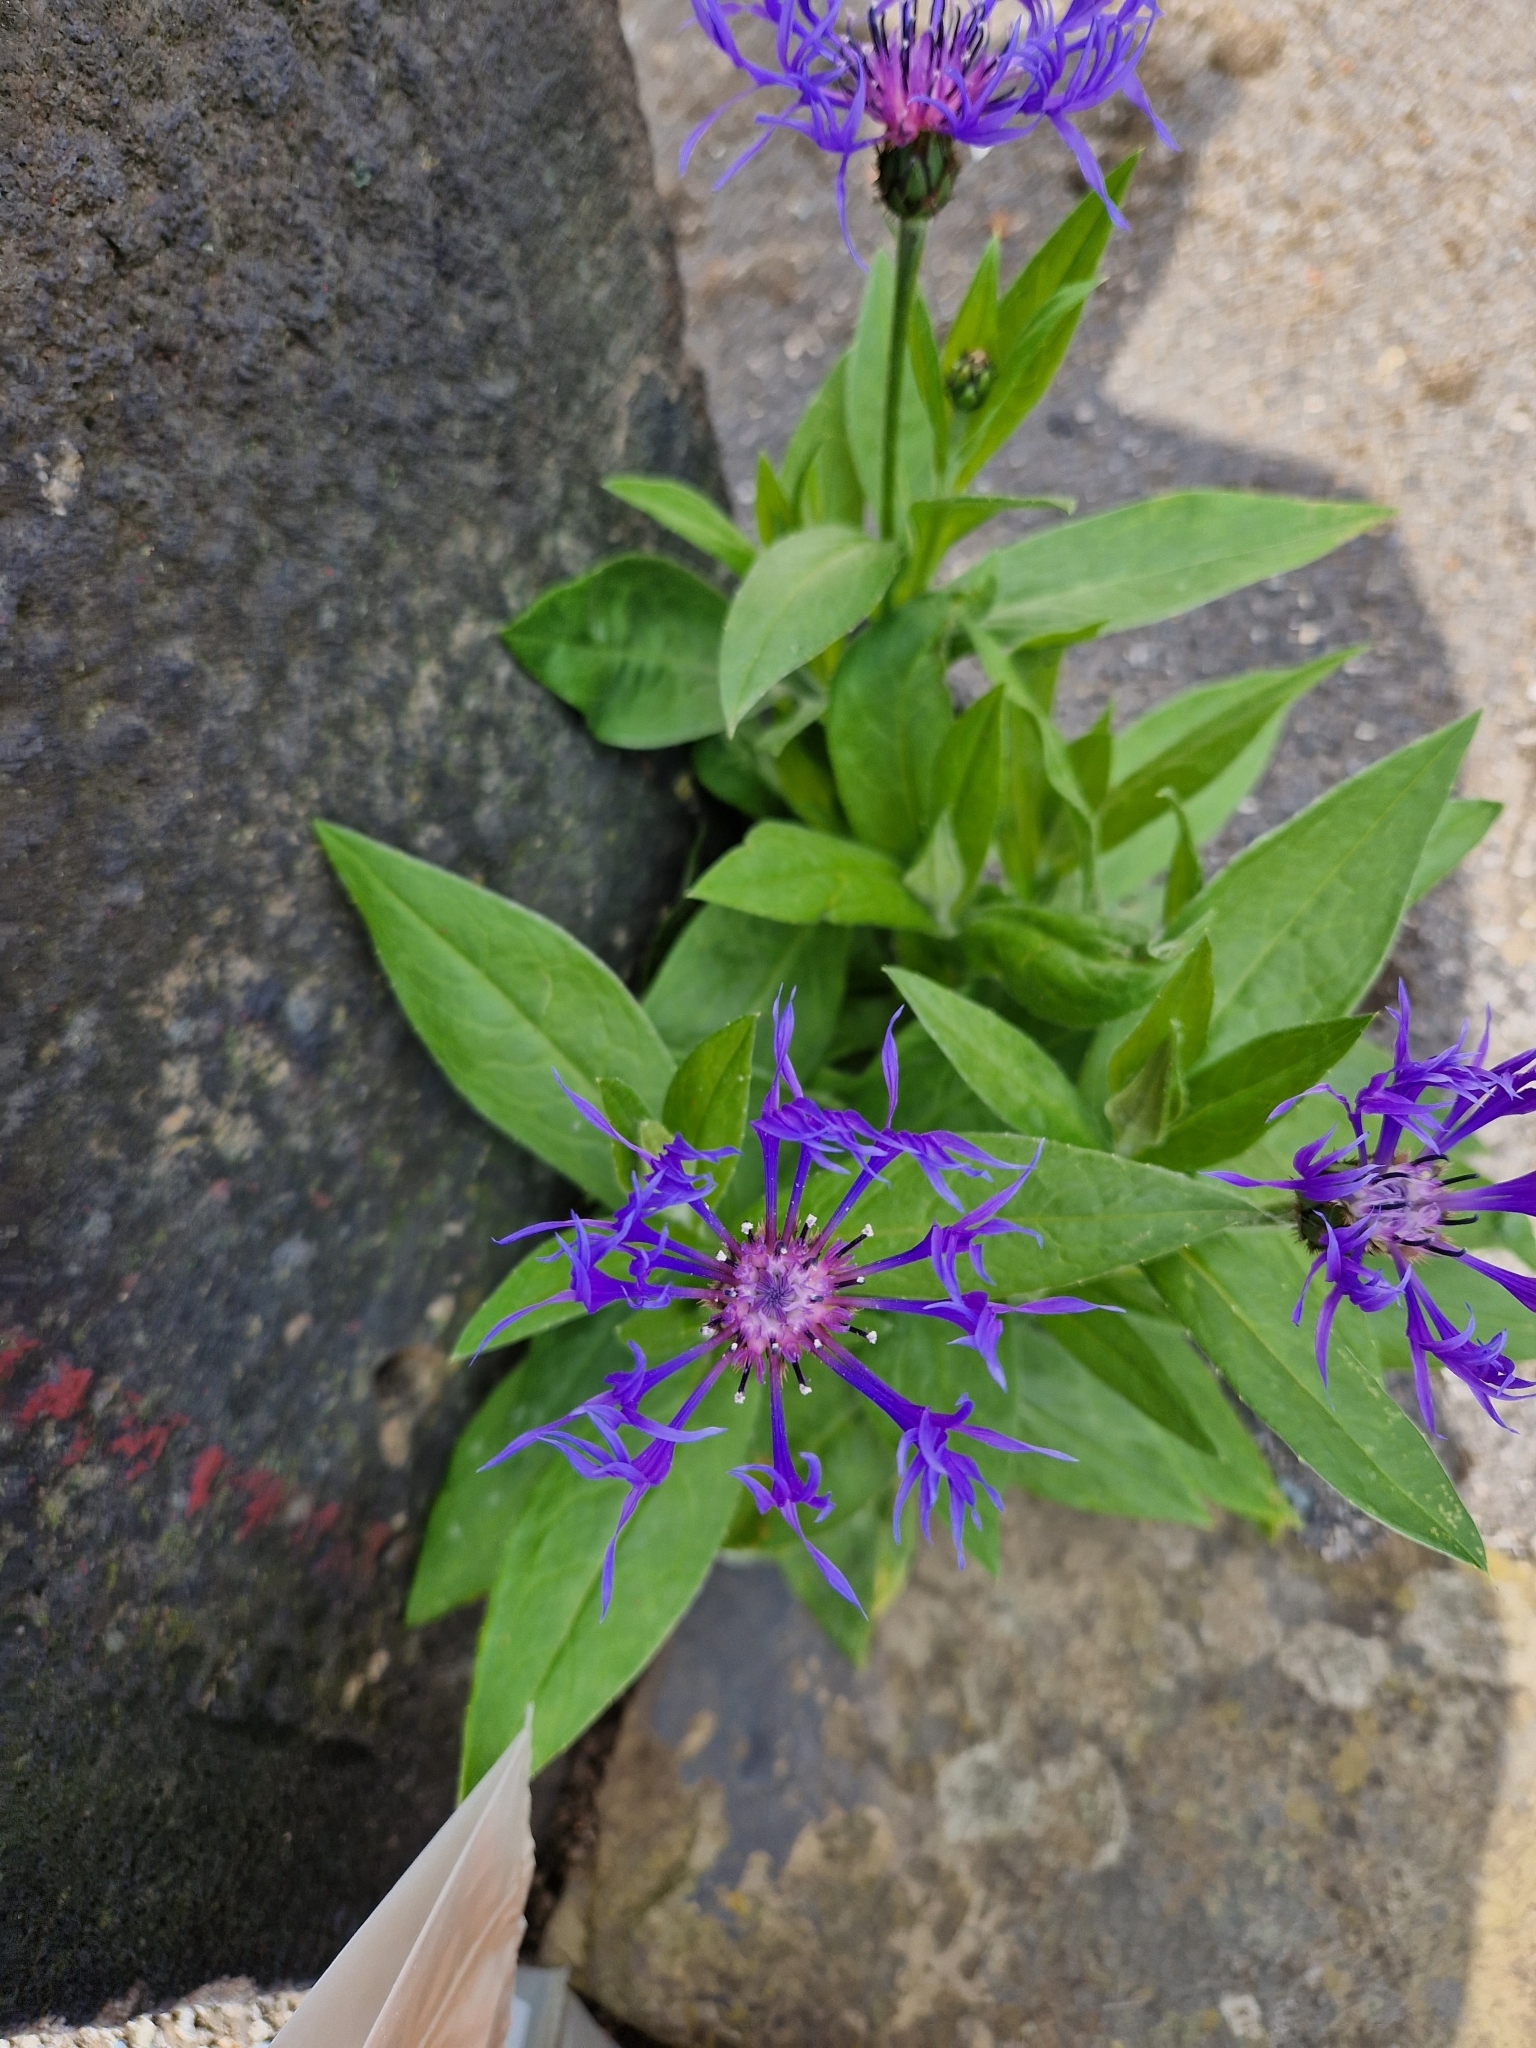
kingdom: Plantae
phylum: Tracheophyta
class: Magnoliopsida
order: Asterales
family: Asteraceae
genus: Centaurea
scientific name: Centaurea montana
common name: Perennial cornflower
